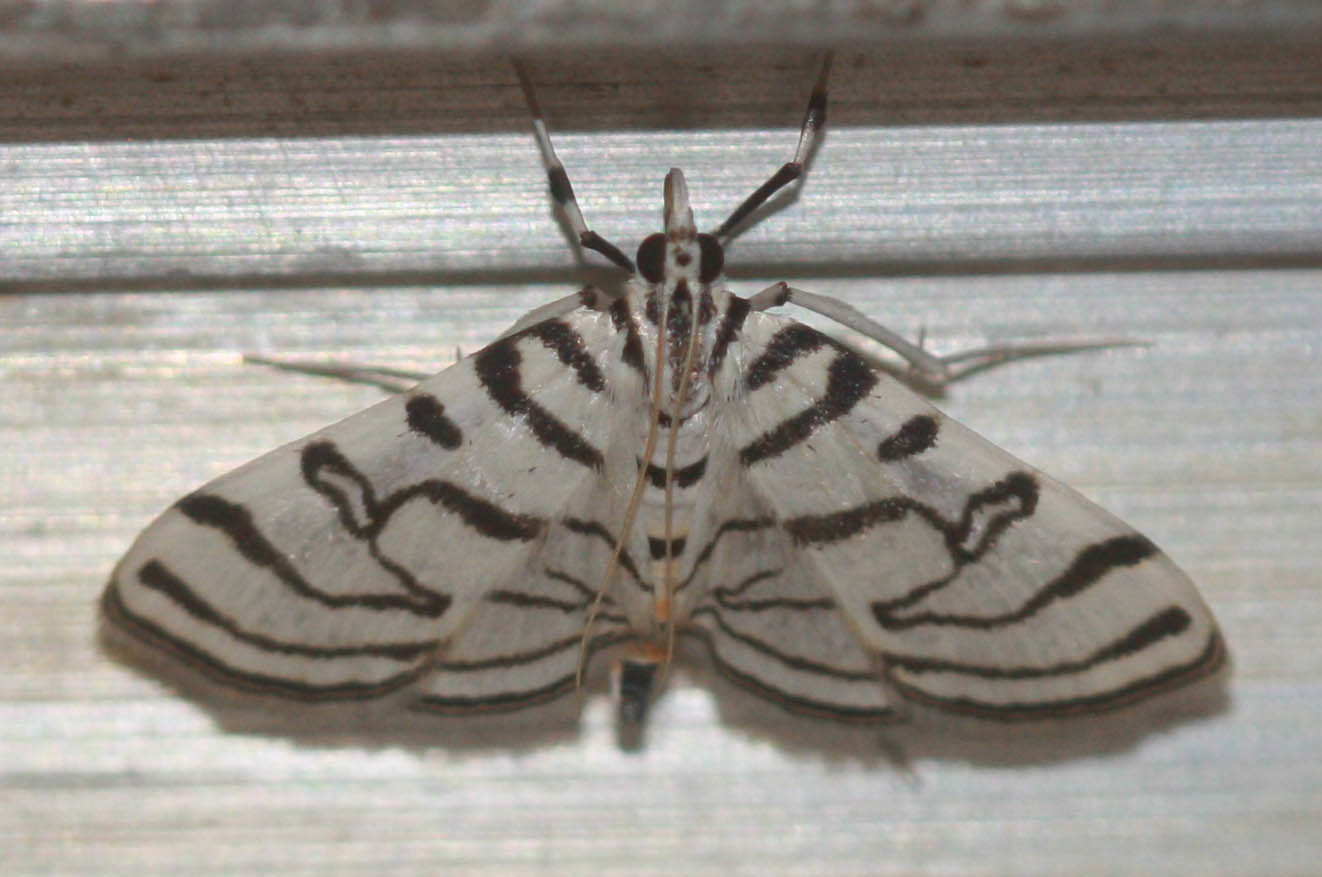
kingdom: Animalia
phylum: Arthropoda
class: Insecta
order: Lepidoptera
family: Crambidae
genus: Conchylodes
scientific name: Conchylodes ovulalis
